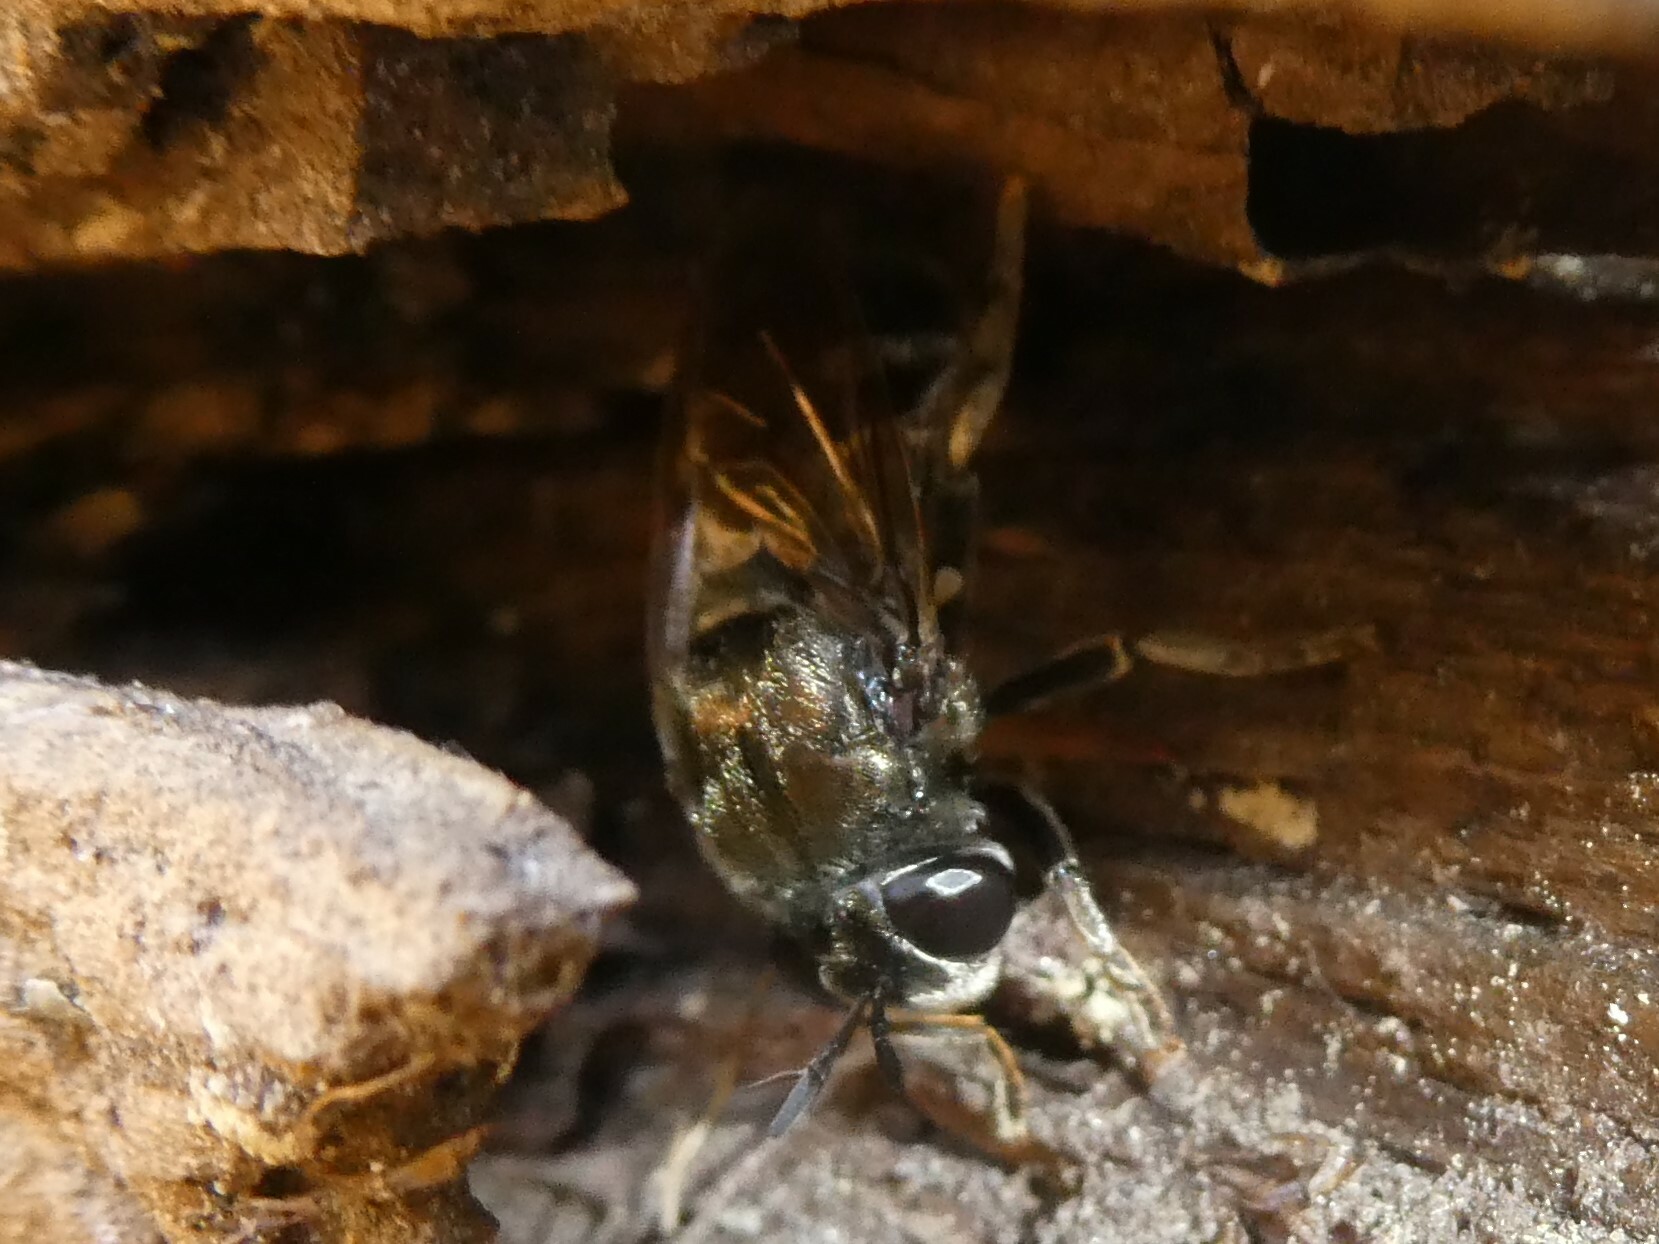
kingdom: Animalia
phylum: Arthropoda
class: Insecta
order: Diptera
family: Syrphidae
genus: Microdon
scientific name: Microdon
